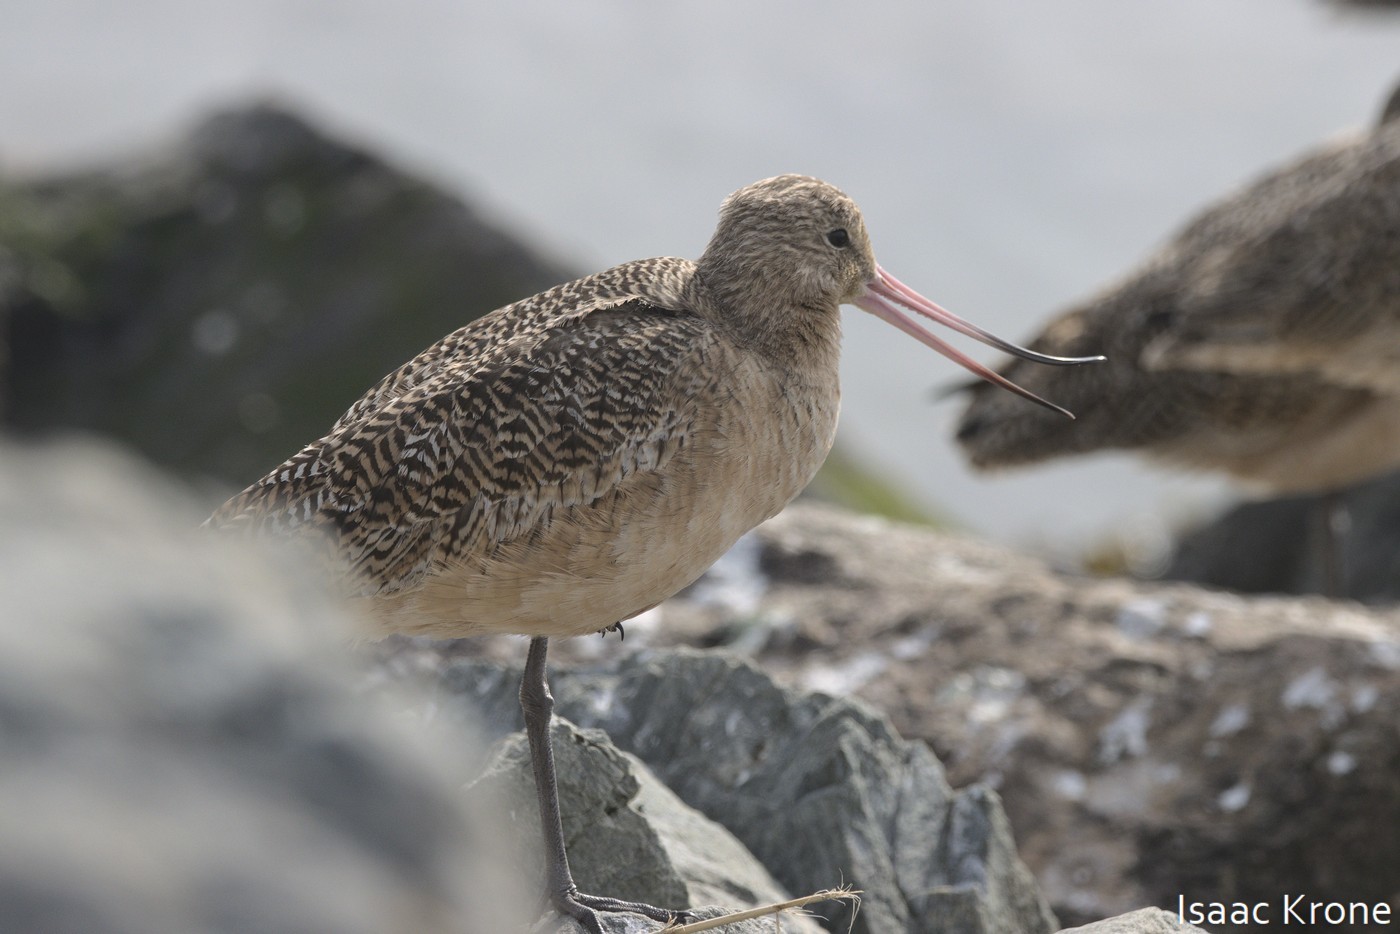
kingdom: Animalia
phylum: Chordata
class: Aves
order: Charadriiformes
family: Scolopacidae
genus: Limosa
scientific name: Limosa fedoa
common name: Marbled godwit
